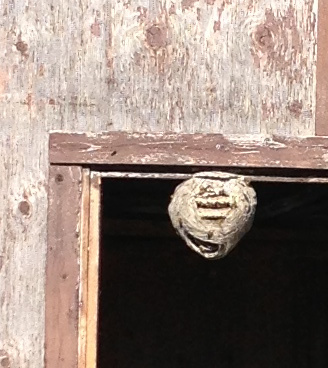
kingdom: Animalia
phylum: Arthropoda
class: Insecta
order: Hymenoptera
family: Vespidae
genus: Dolichovespula
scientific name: Dolichovespula
